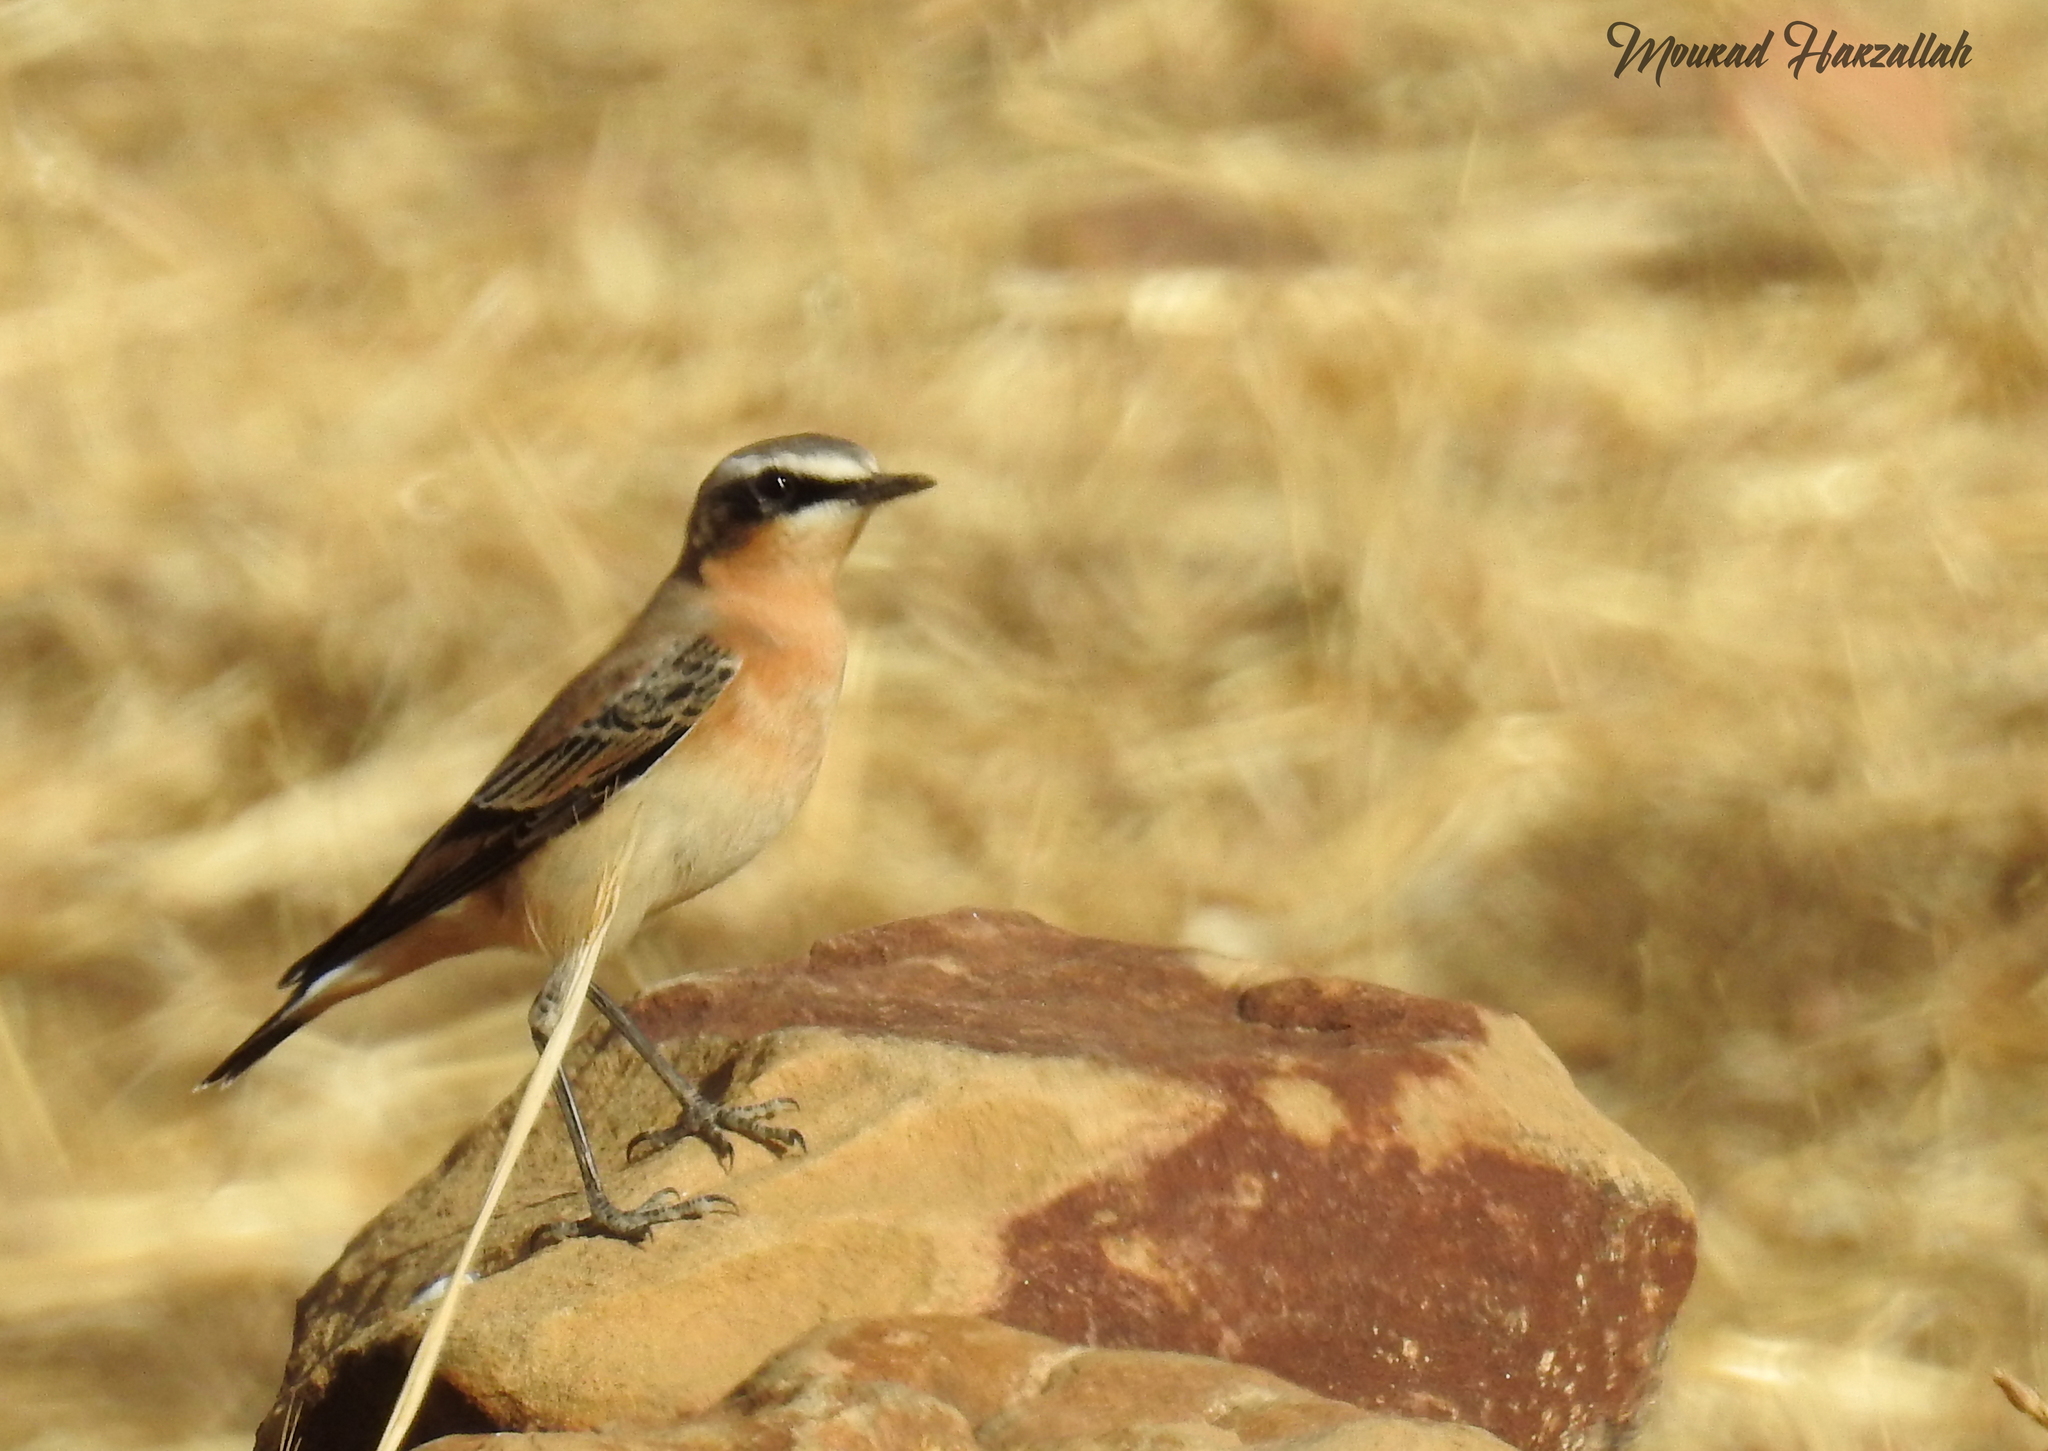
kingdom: Animalia
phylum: Chordata
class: Aves
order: Passeriformes
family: Muscicapidae
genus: Oenanthe
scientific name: Oenanthe oenanthe
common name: Northern wheatear
